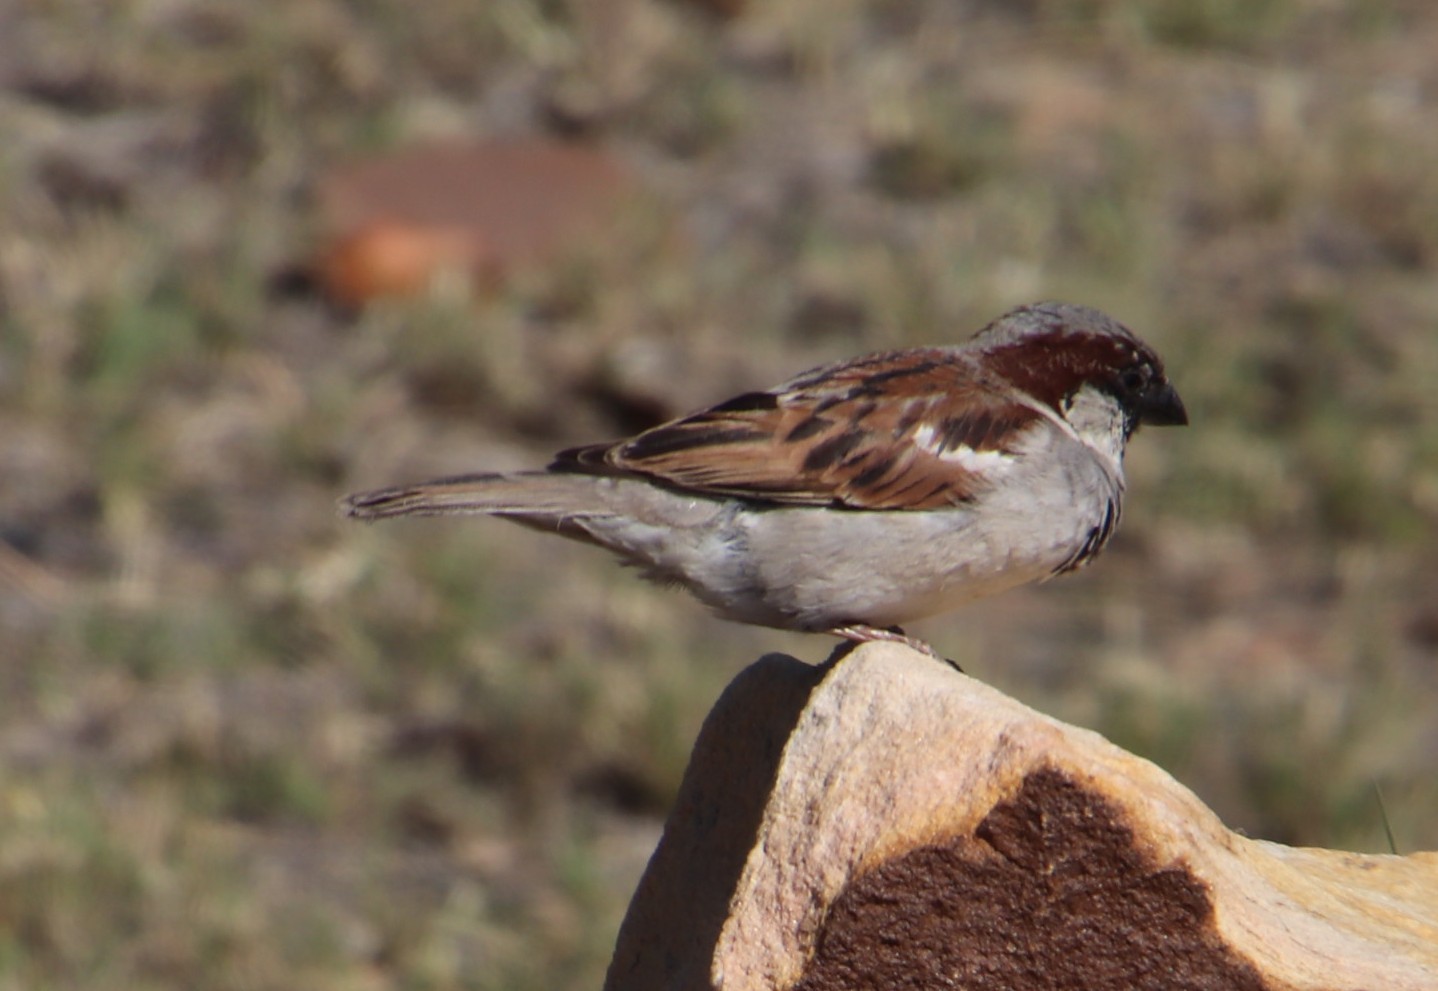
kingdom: Animalia
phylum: Chordata
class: Aves
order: Passeriformes
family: Passeridae
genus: Passer
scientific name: Passer domesticus
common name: House sparrow
